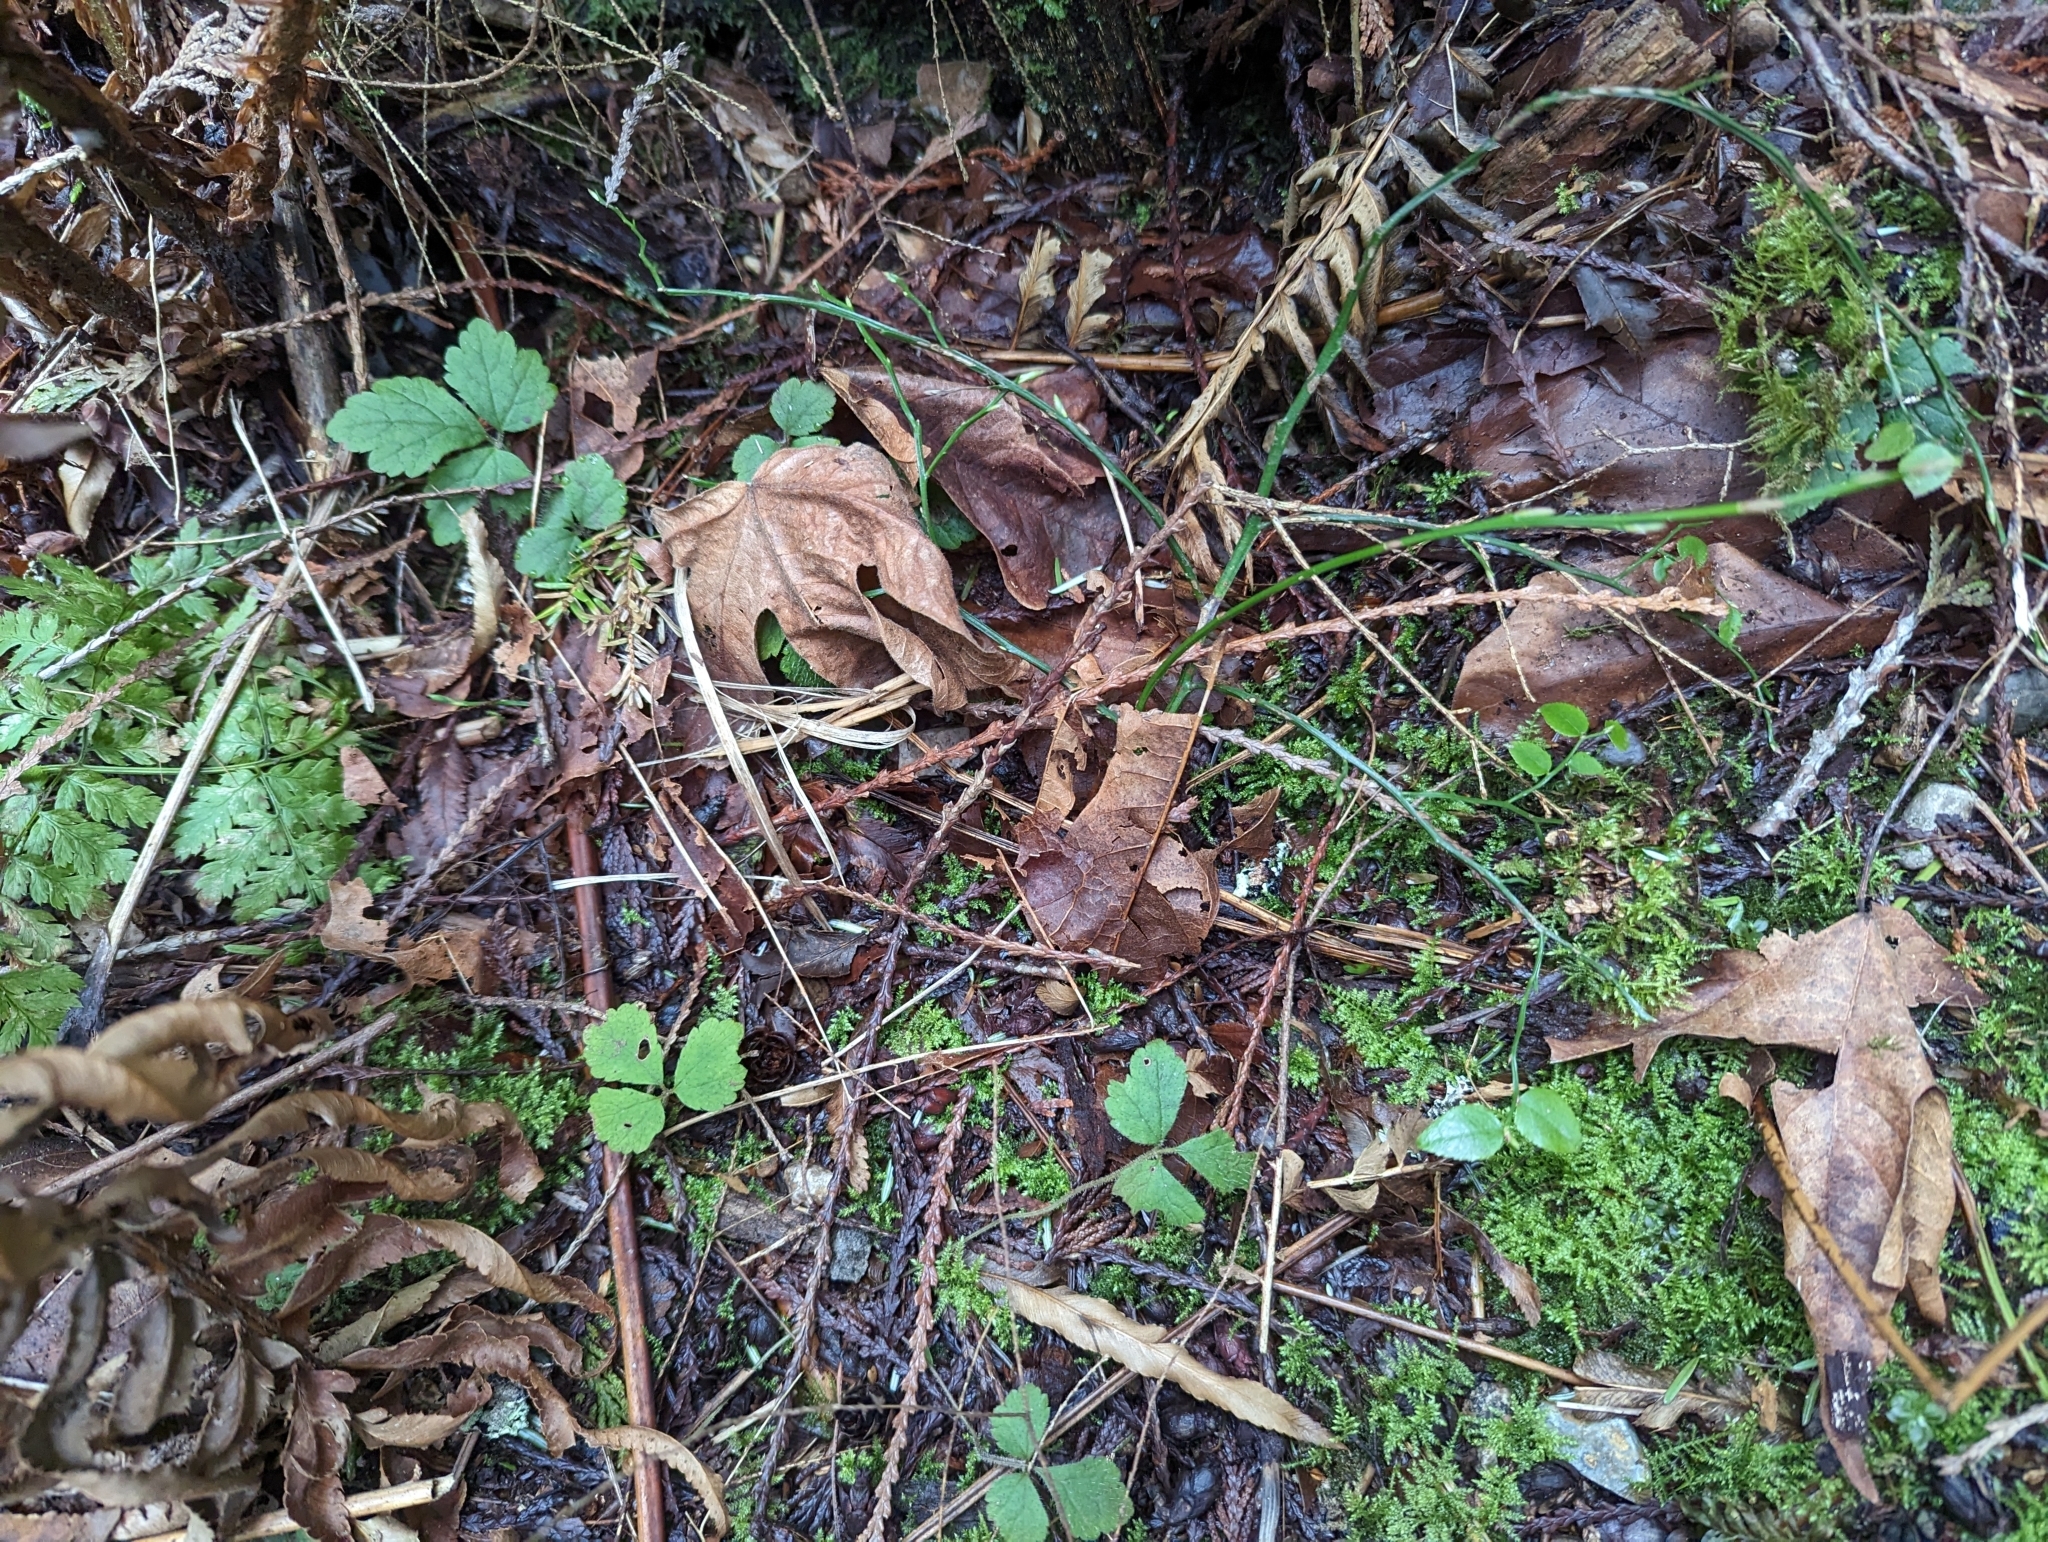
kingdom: Plantae
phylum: Tracheophyta
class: Magnoliopsida
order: Saxifragales
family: Saxifragaceae
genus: Tiarella
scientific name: Tiarella trifoliata
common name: Sugar-scoop
